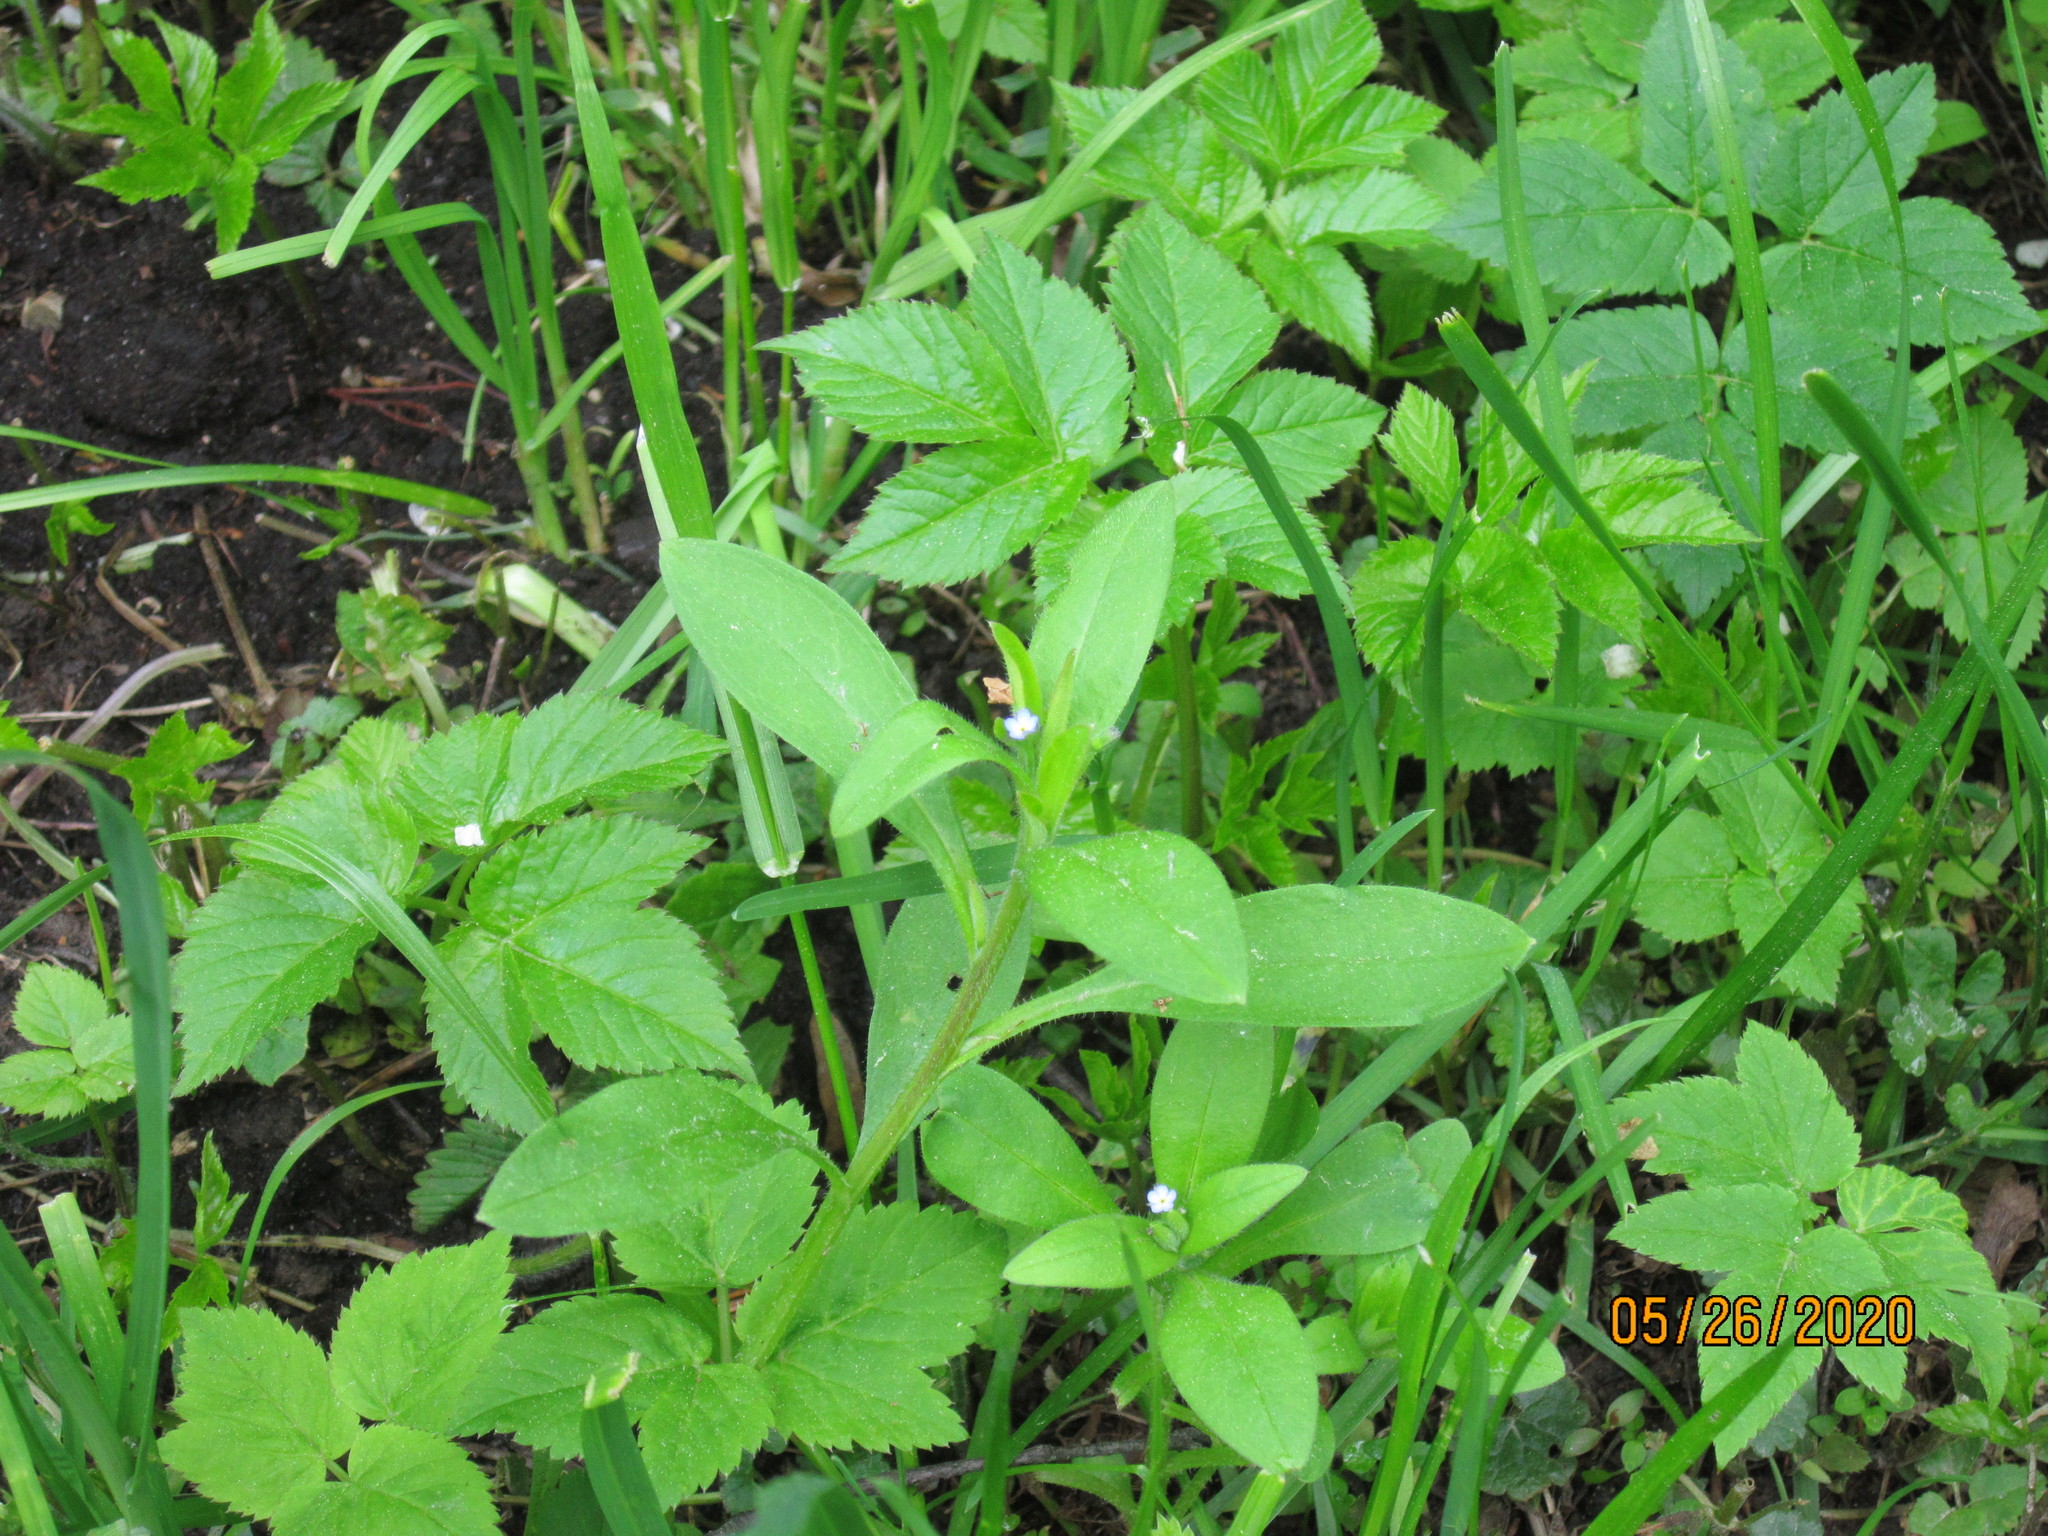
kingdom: Plantae
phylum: Tracheophyta
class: Magnoliopsida
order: Boraginales
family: Boraginaceae
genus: Myosotis
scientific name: Myosotis sparsiflora
